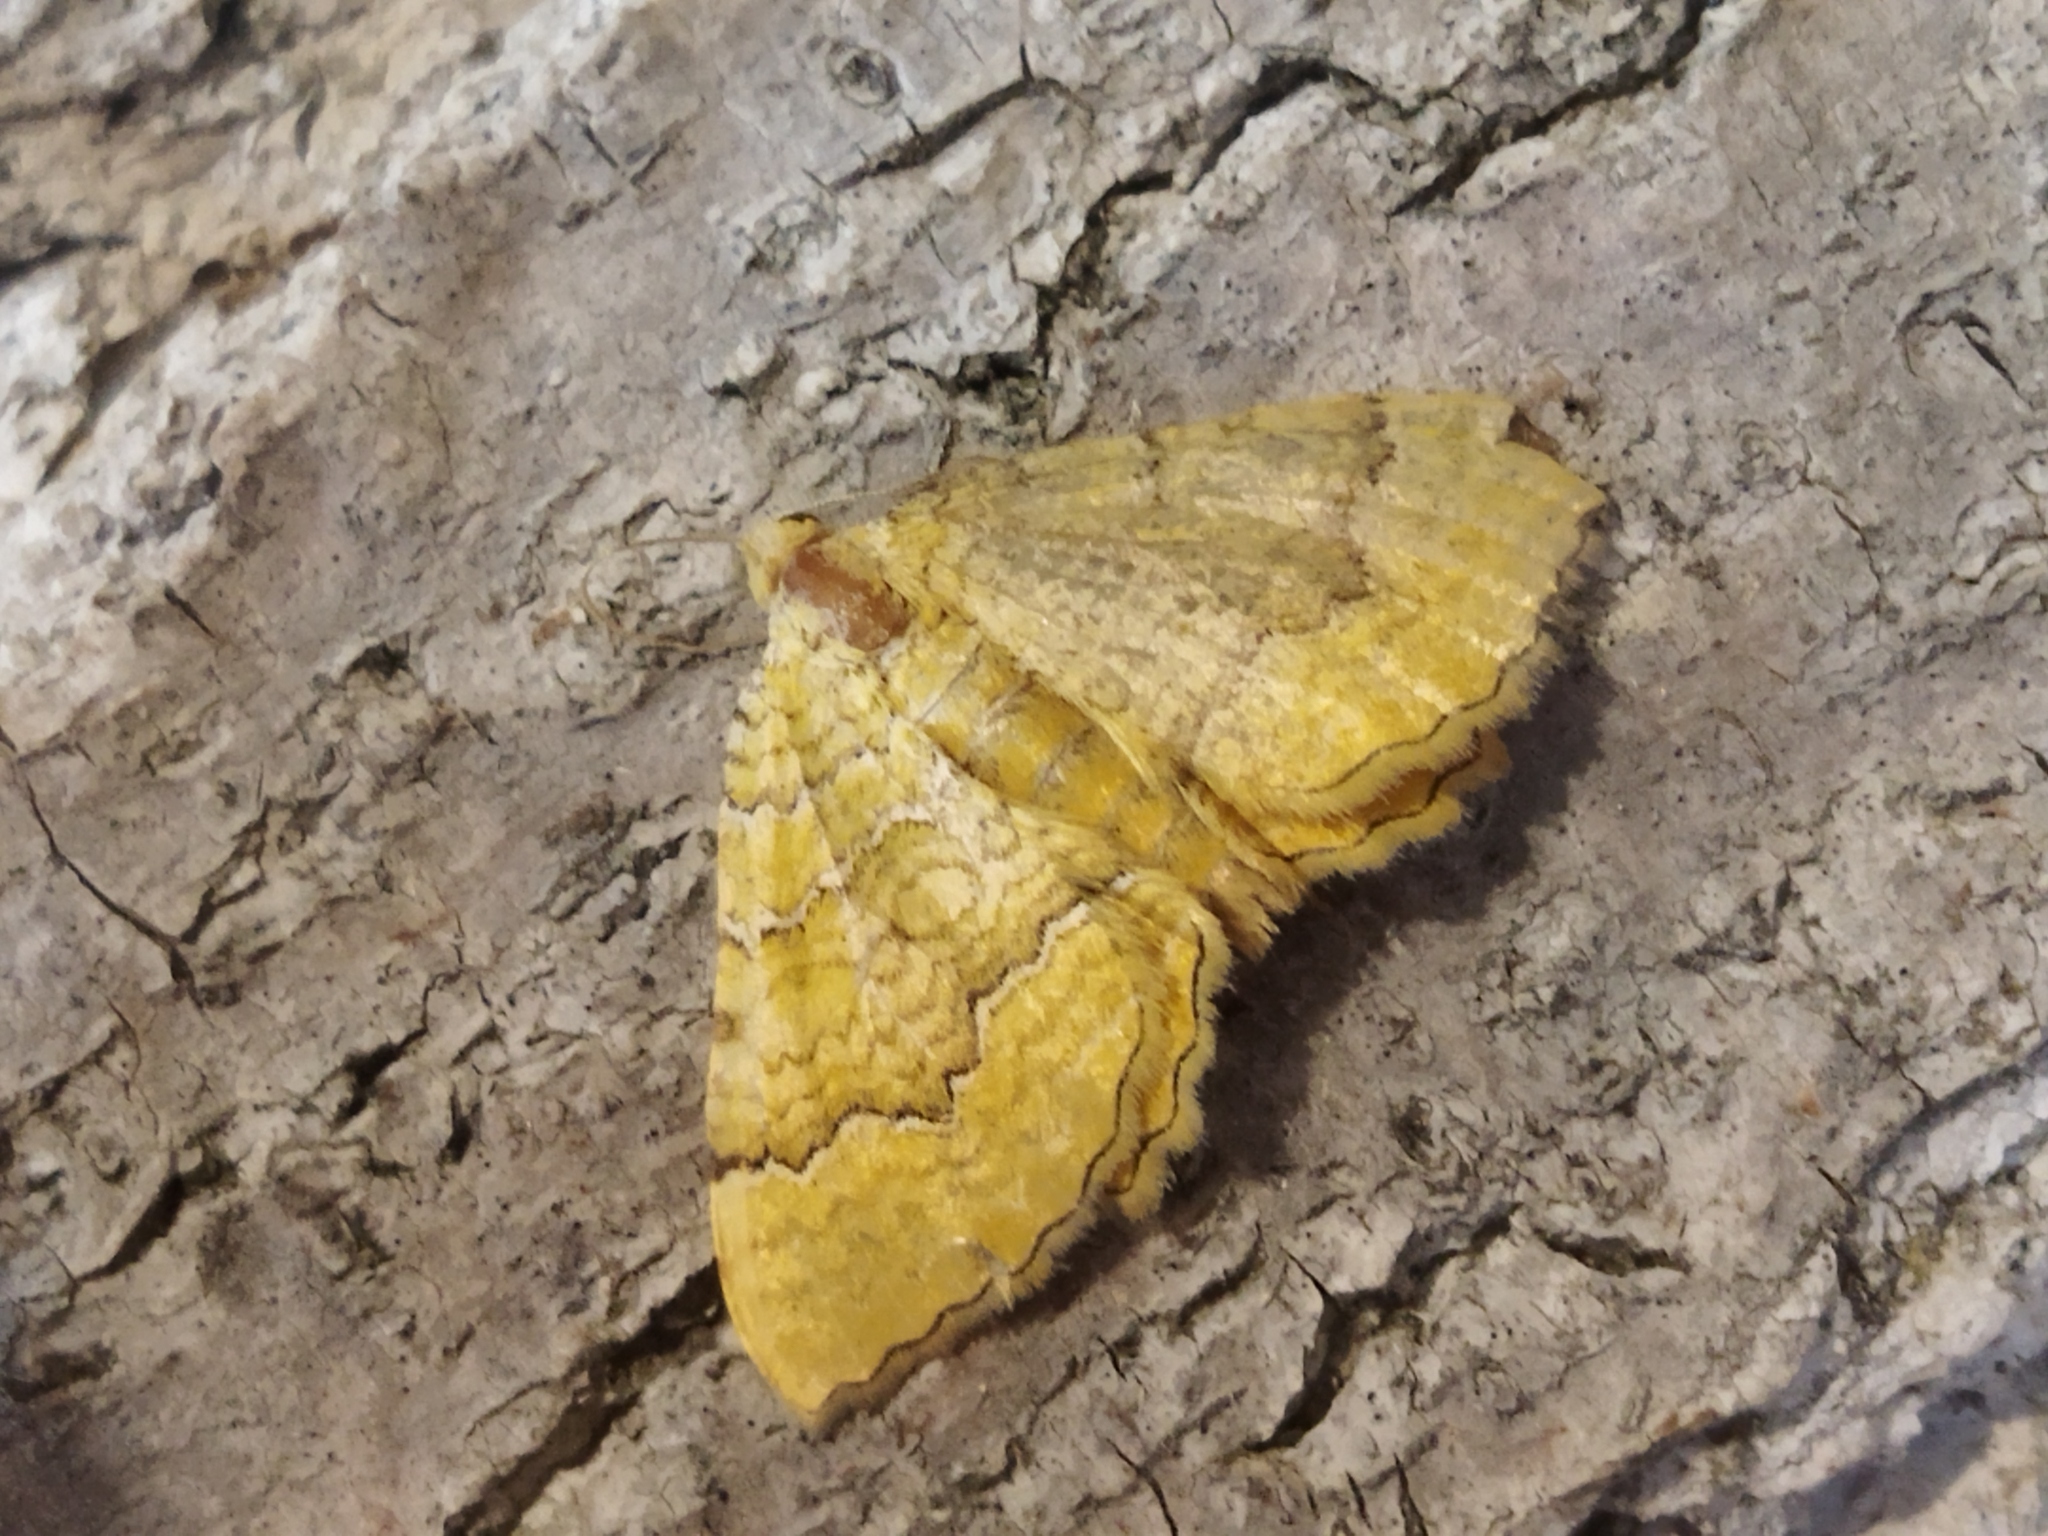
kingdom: Animalia
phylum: Arthropoda
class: Insecta
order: Lepidoptera
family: Geometridae
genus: Camptogramma
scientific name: Camptogramma bilineata
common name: Yellow shell
